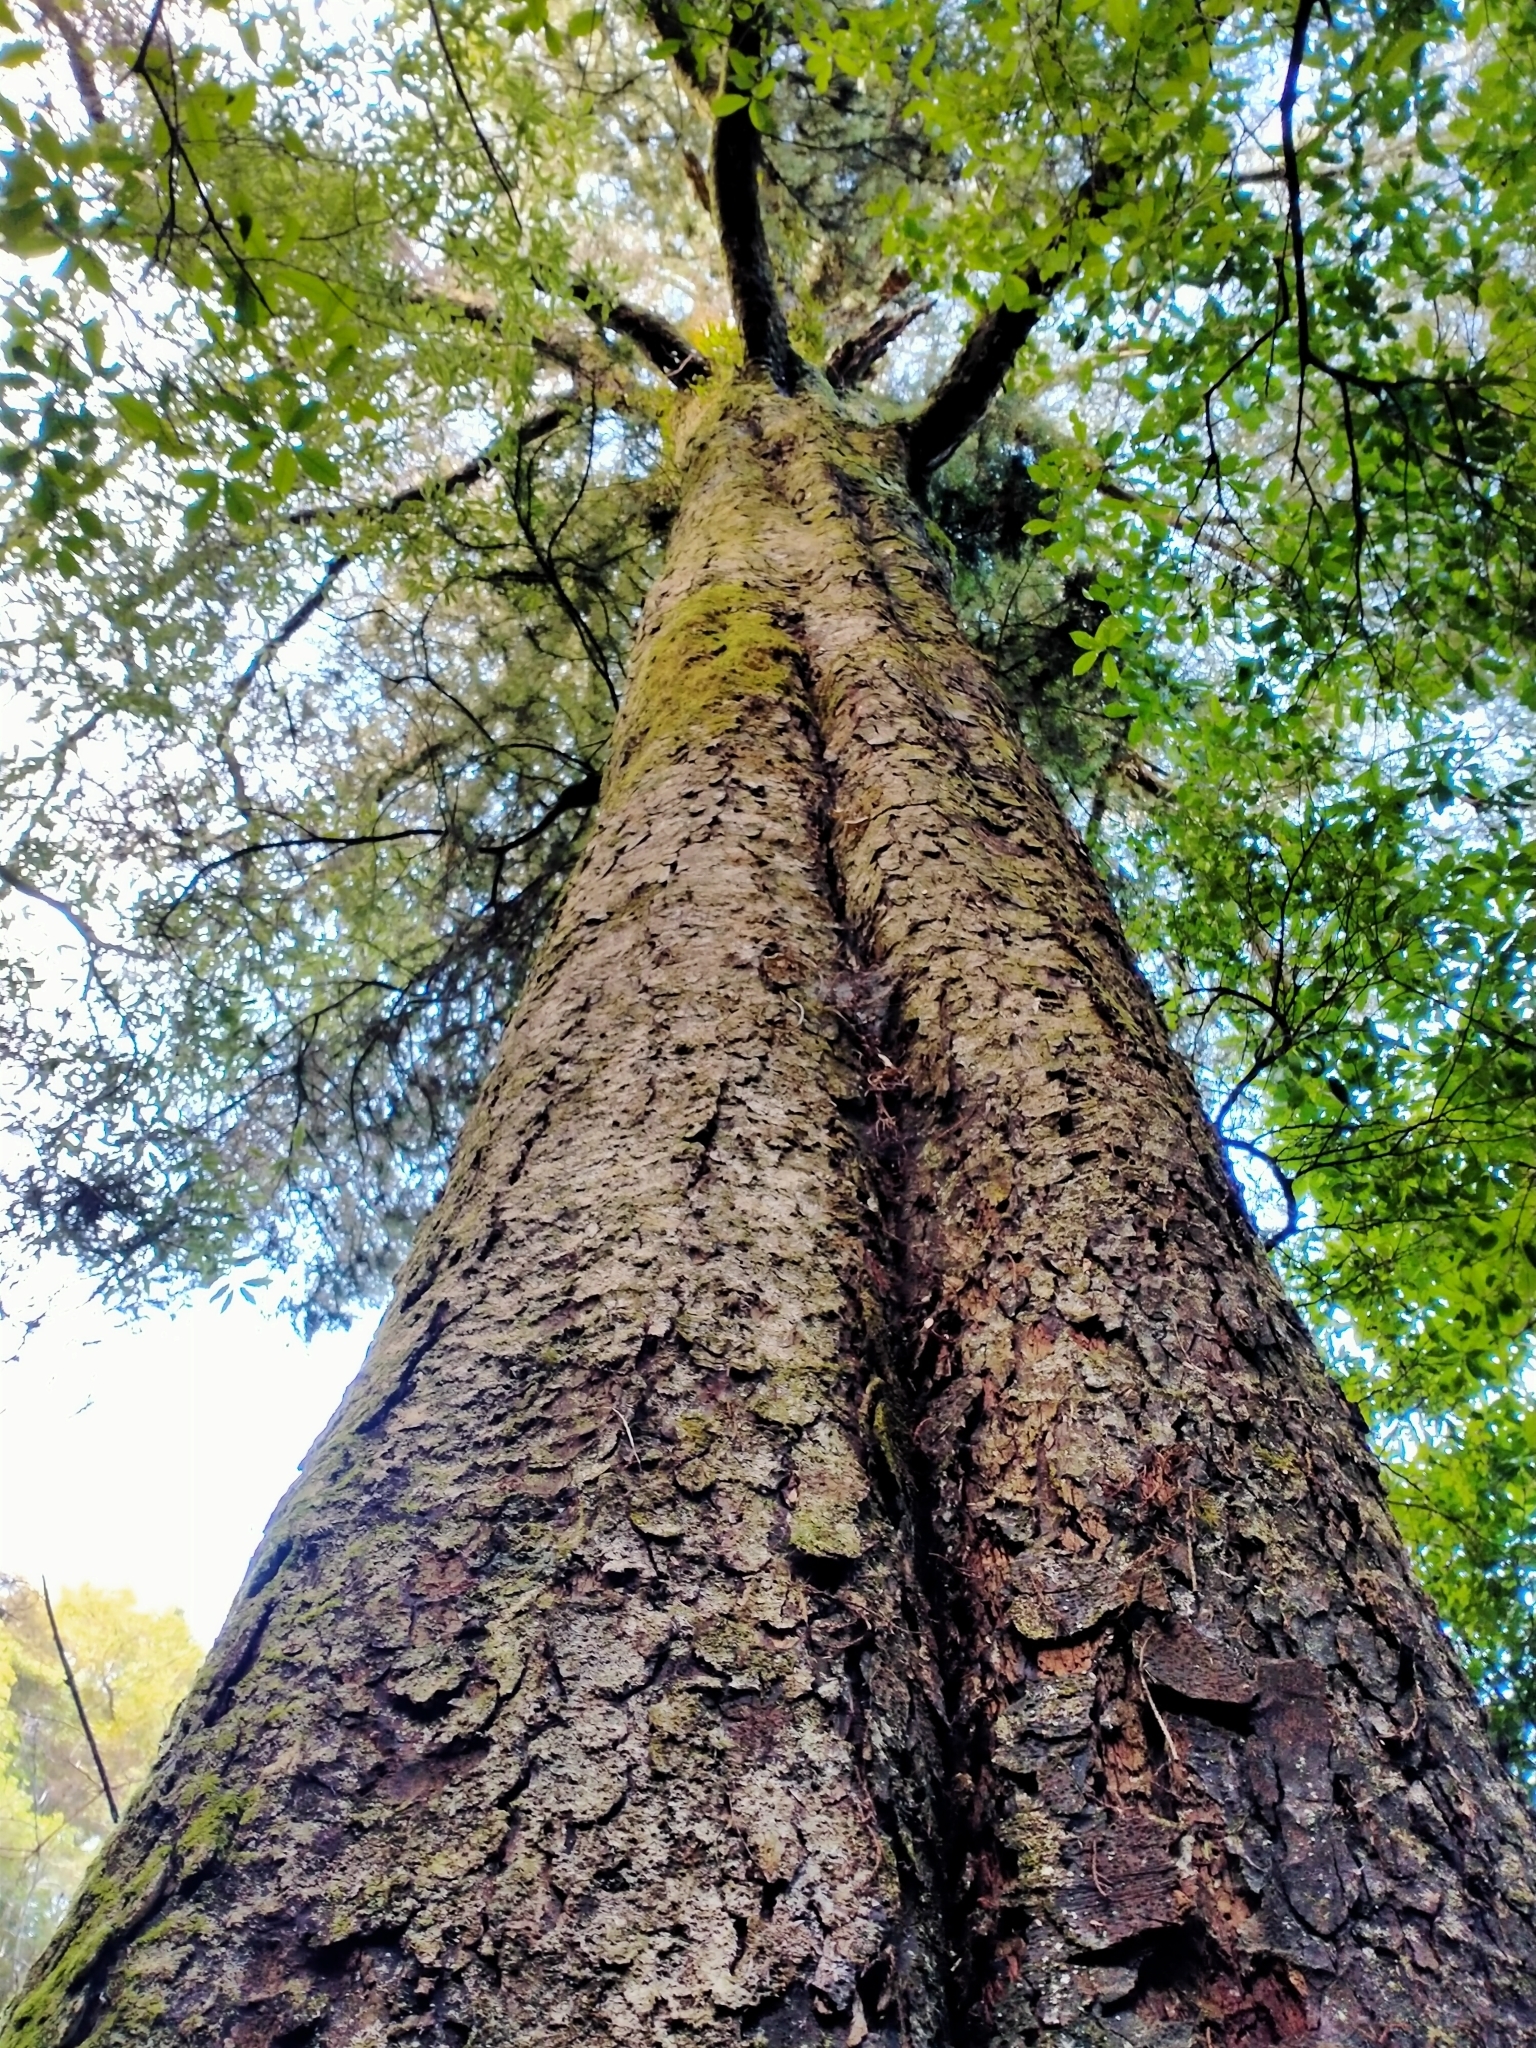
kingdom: Plantae
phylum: Tracheophyta
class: Pinopsida
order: Pinales
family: Podocarpaceae
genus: Dacrycarpus
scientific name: Dacrycarpus dacrydioides
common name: White pine
